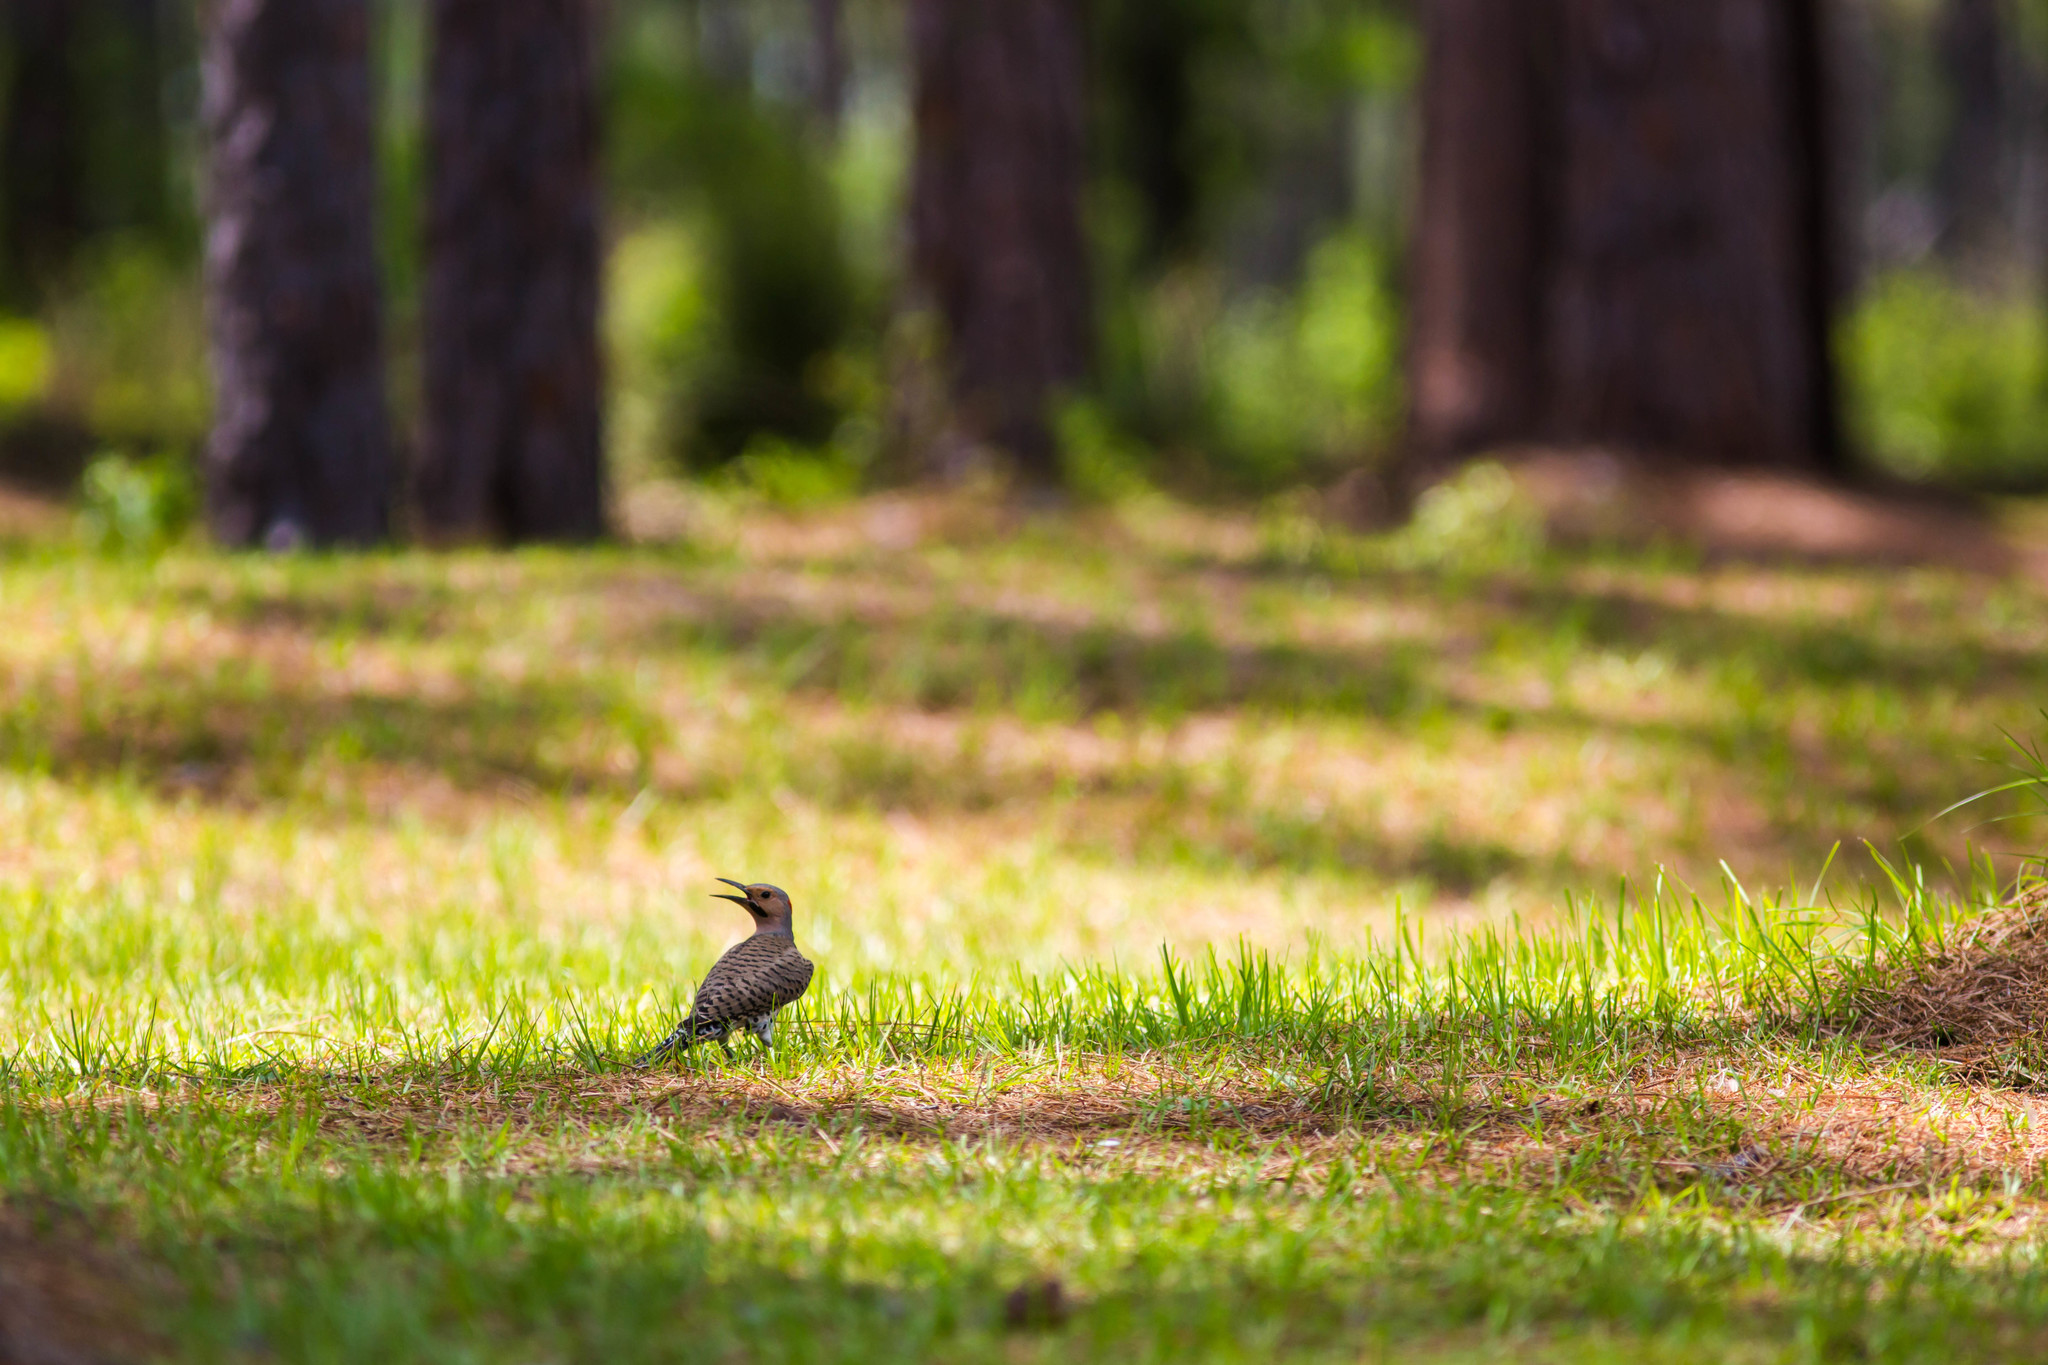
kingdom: Animalia
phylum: Chordata
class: Aves
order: Piciformes
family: Picidae
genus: Colaptes
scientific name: Colaptes auratus
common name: Northern flicker
